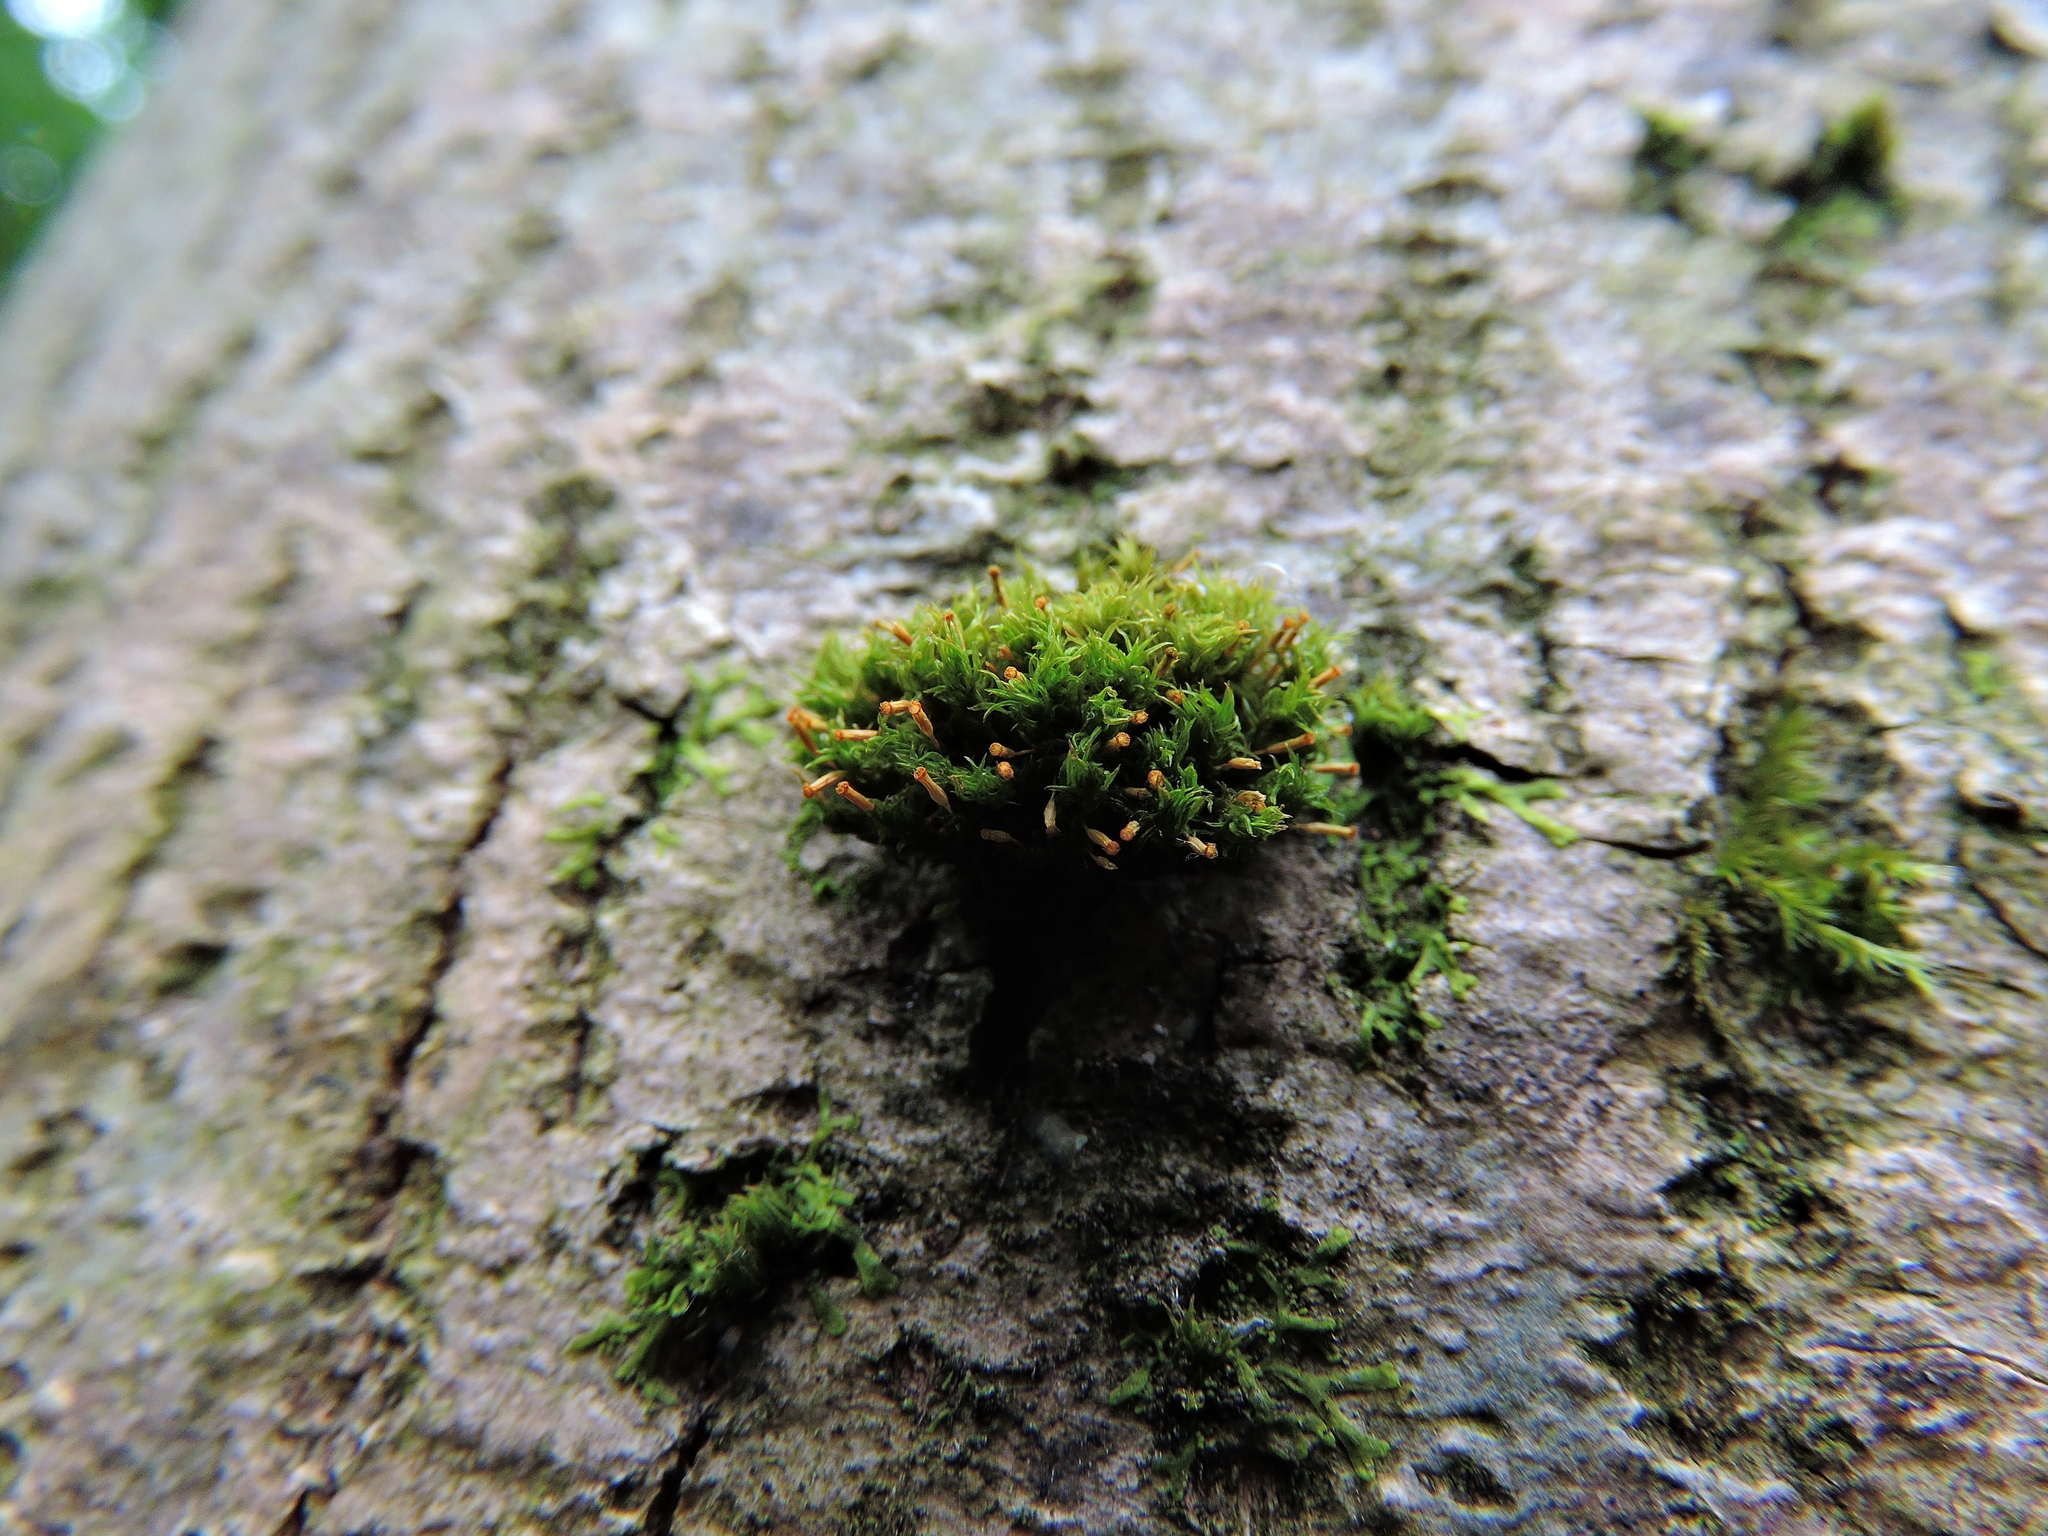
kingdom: Plantae
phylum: Bryophyta
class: Bryopsida
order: Orthotrichales
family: Orthotrichaceae
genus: Orthotrichum
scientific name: Orthotrichum pulchellum
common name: Elegant bristle-moss
